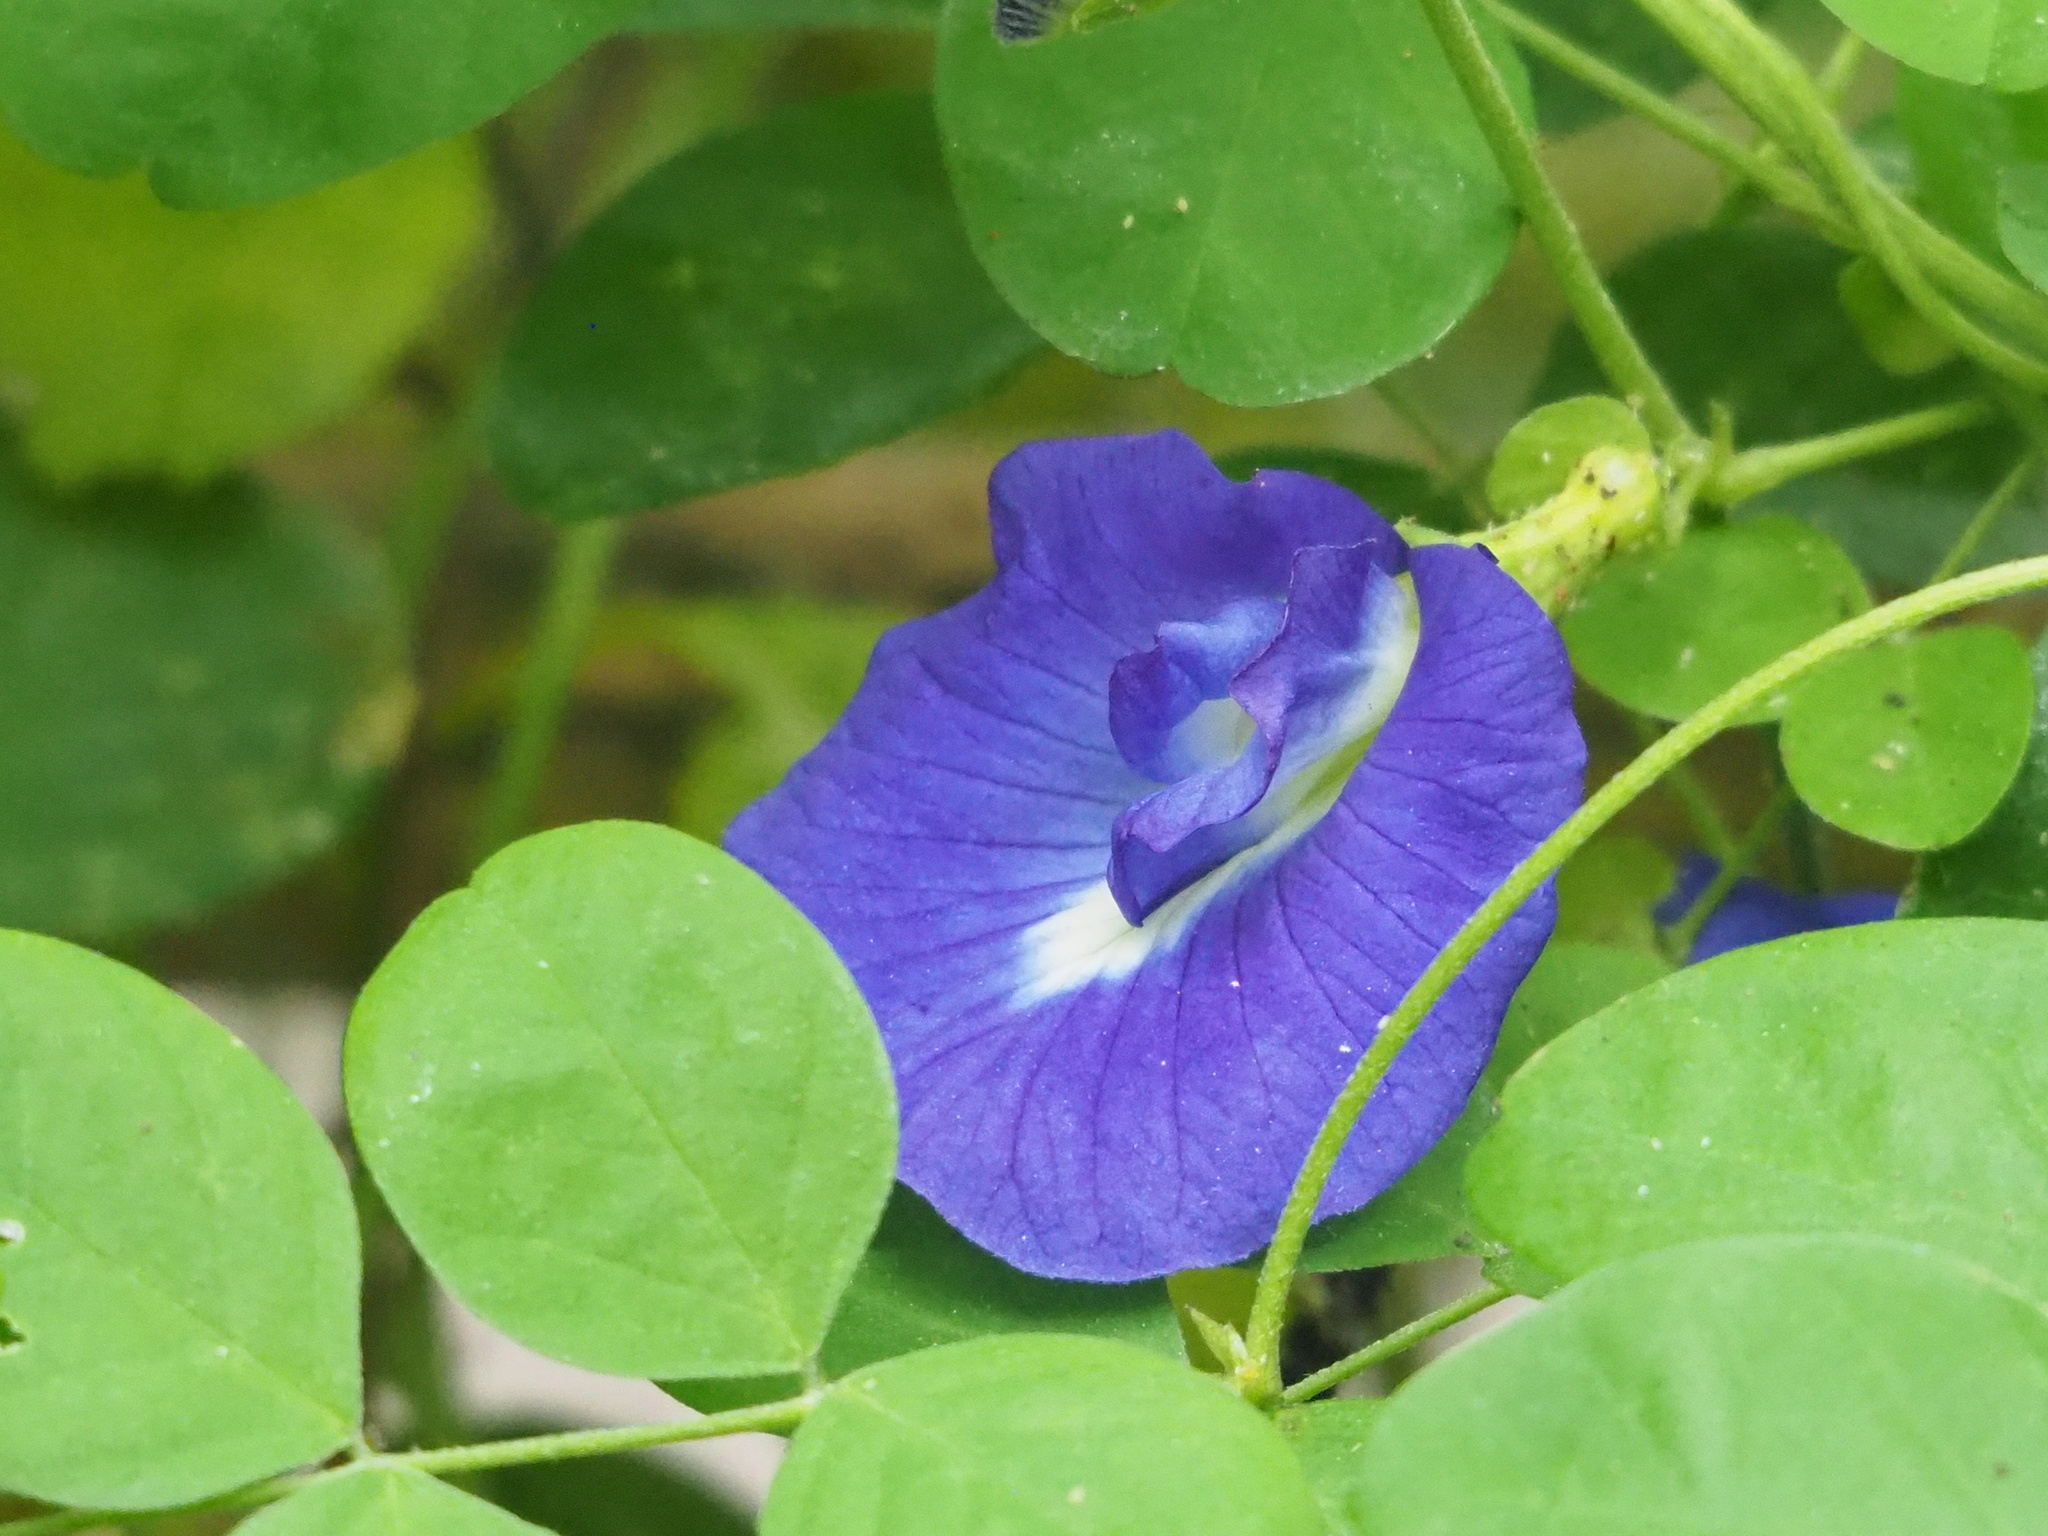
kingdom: Plantae
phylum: Tracheophyta
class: Magnoliopsida
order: Fabales
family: Fabaceae
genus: Clitoria
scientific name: Clitoria ternatea
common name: Asian pigeonwings
